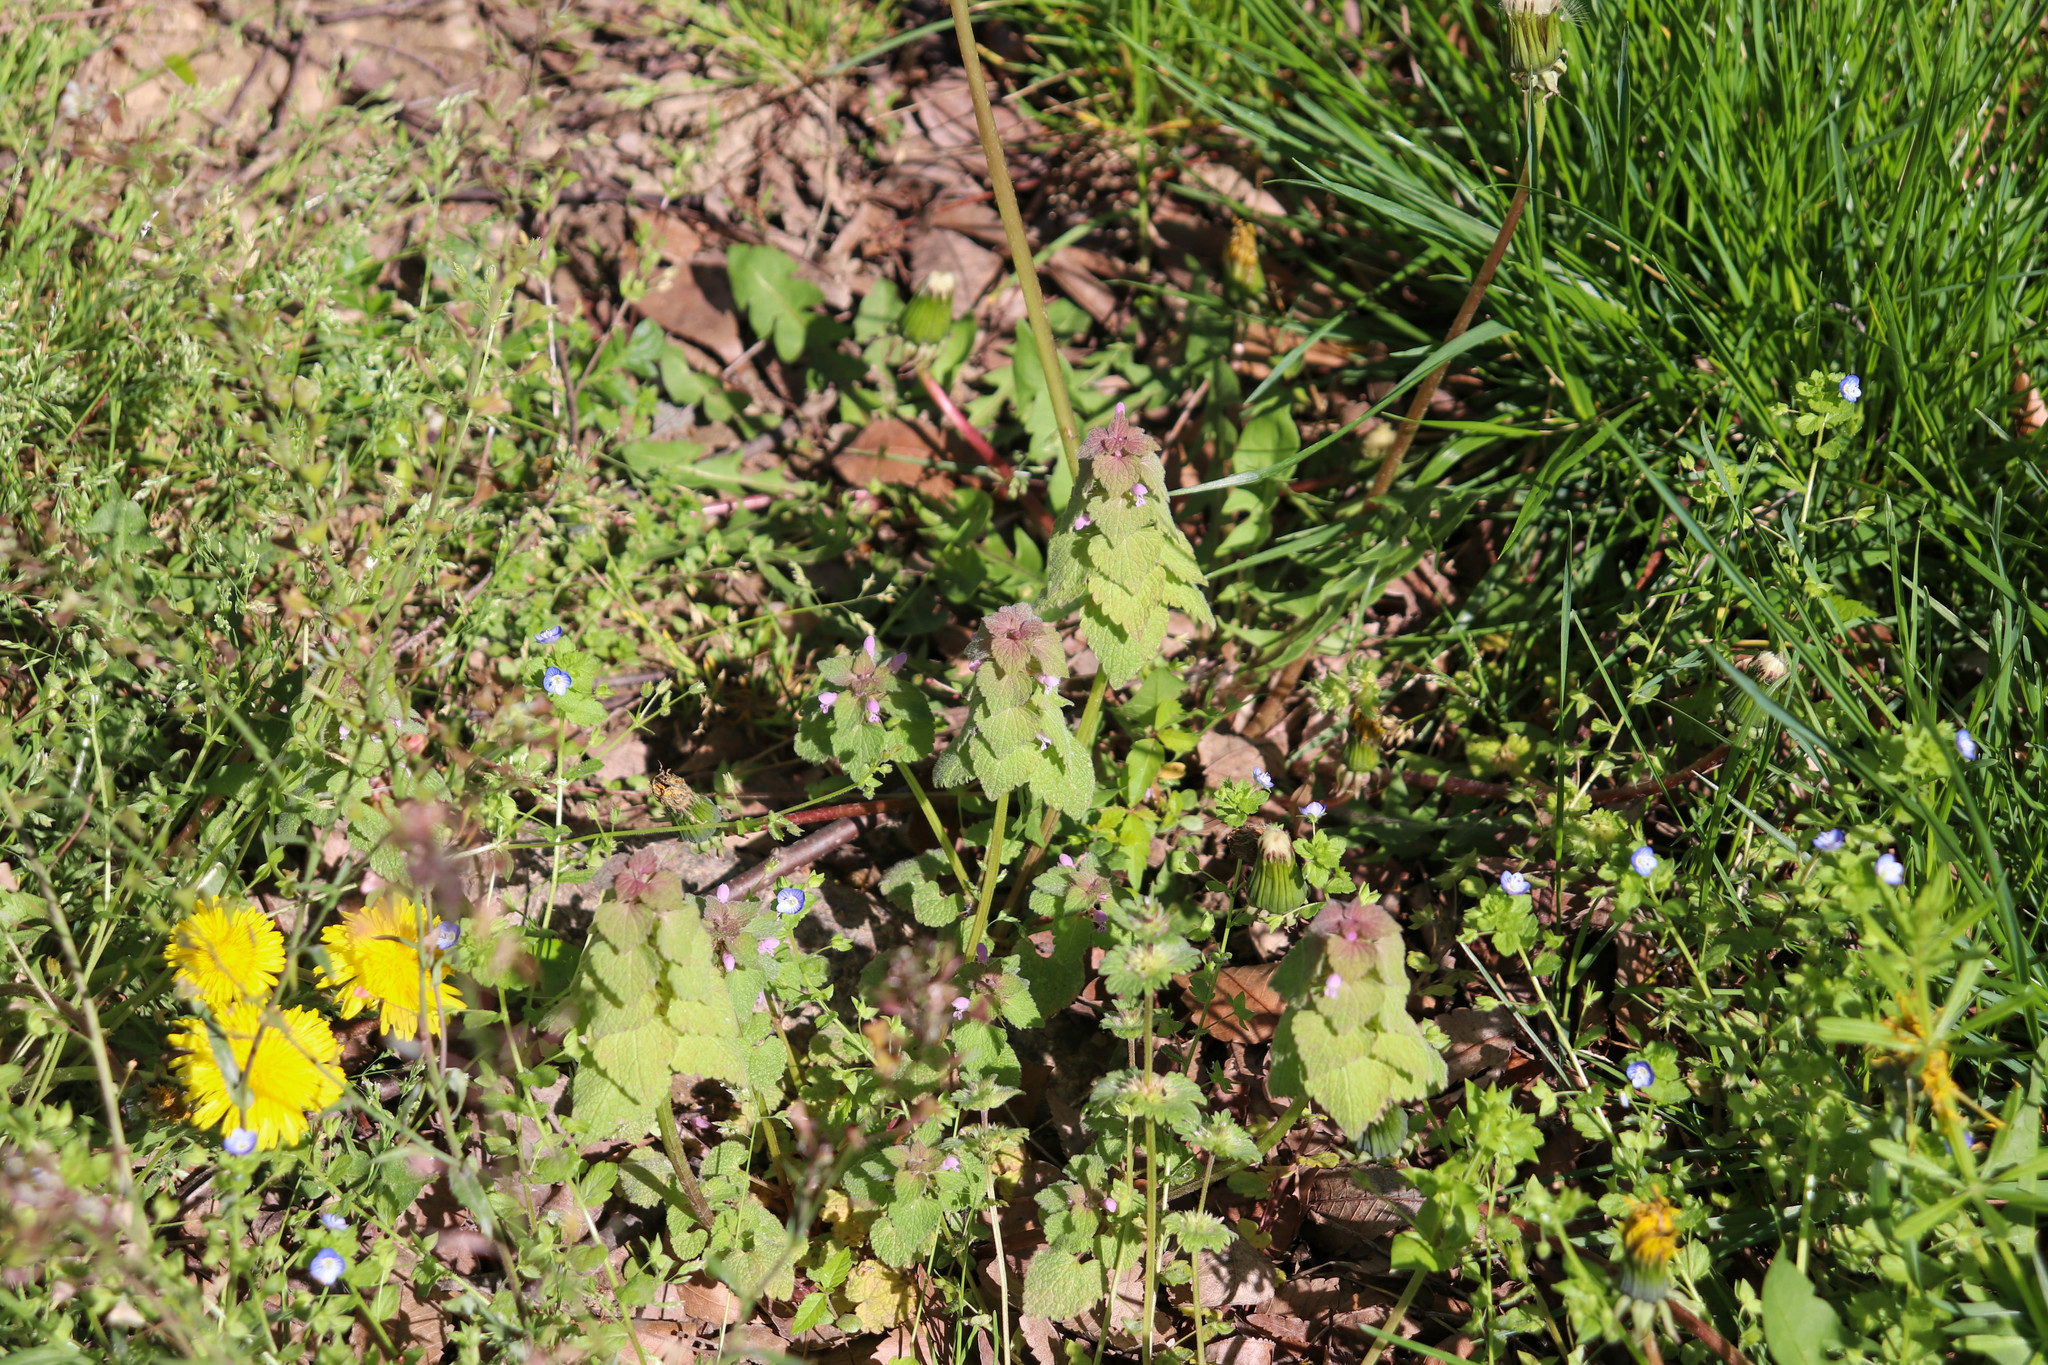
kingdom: Plantae
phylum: Tracheophyta
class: Magnoliopsida
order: Lamiales
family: Lamiaceae
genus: Lamium
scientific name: Lamium purpureum
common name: Red dead-nettle
